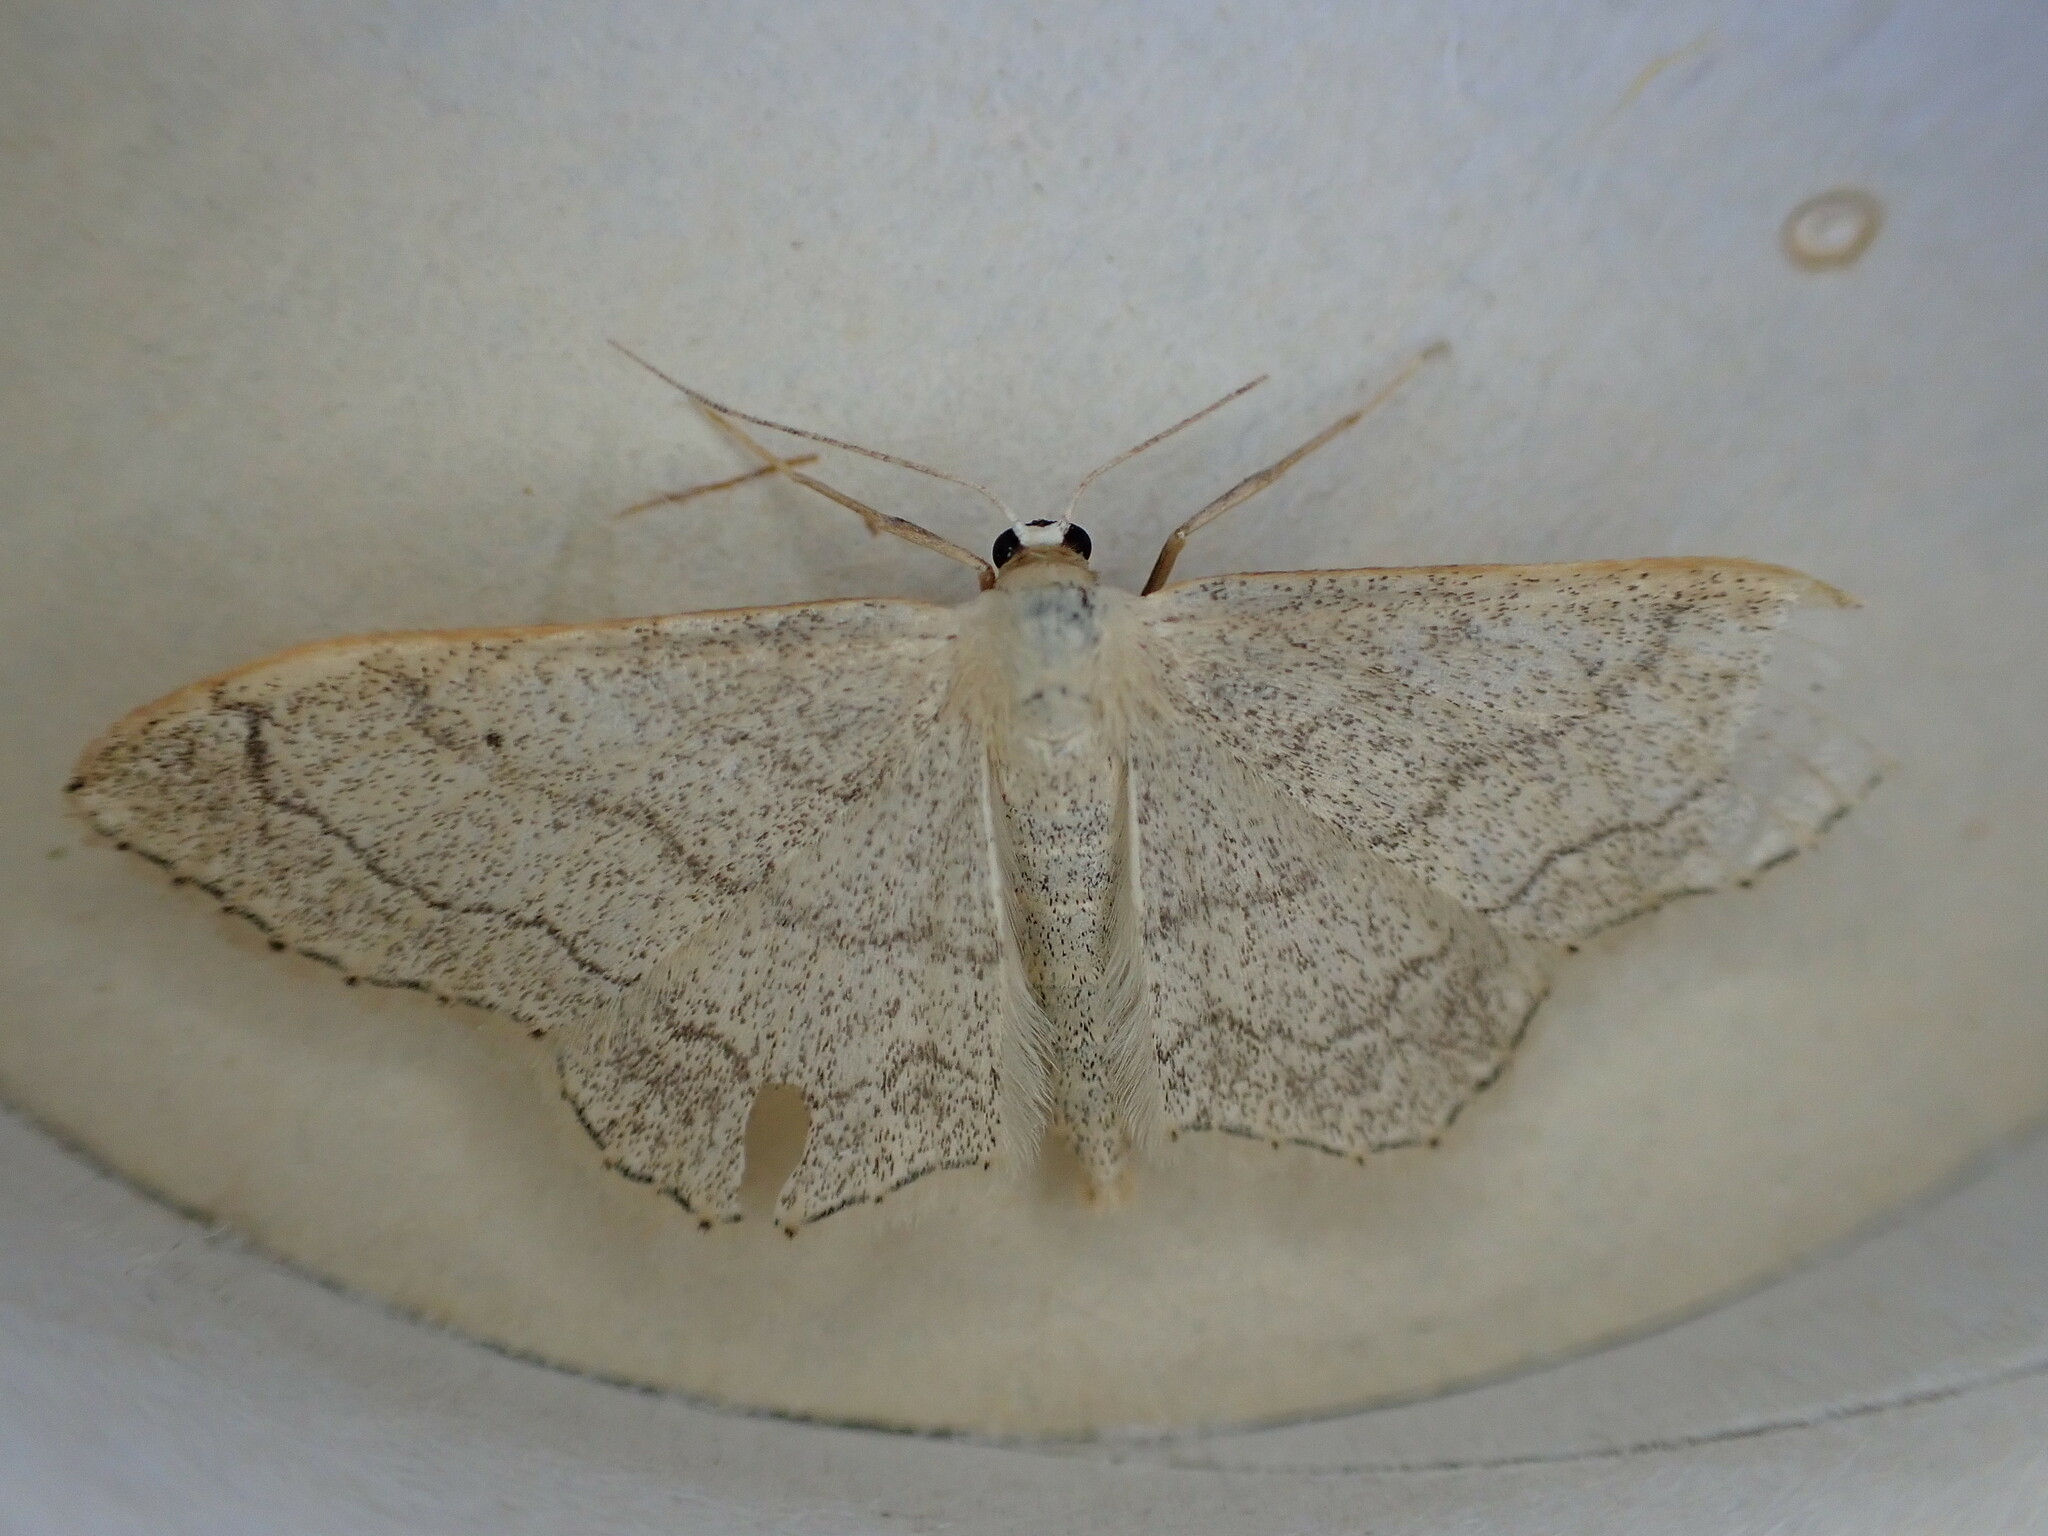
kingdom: Animalia
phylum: Arthropoda
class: Insecta
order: Lepidoptera
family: Geometridae
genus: Idaea
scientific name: Idaea aversata
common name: Riband wave
